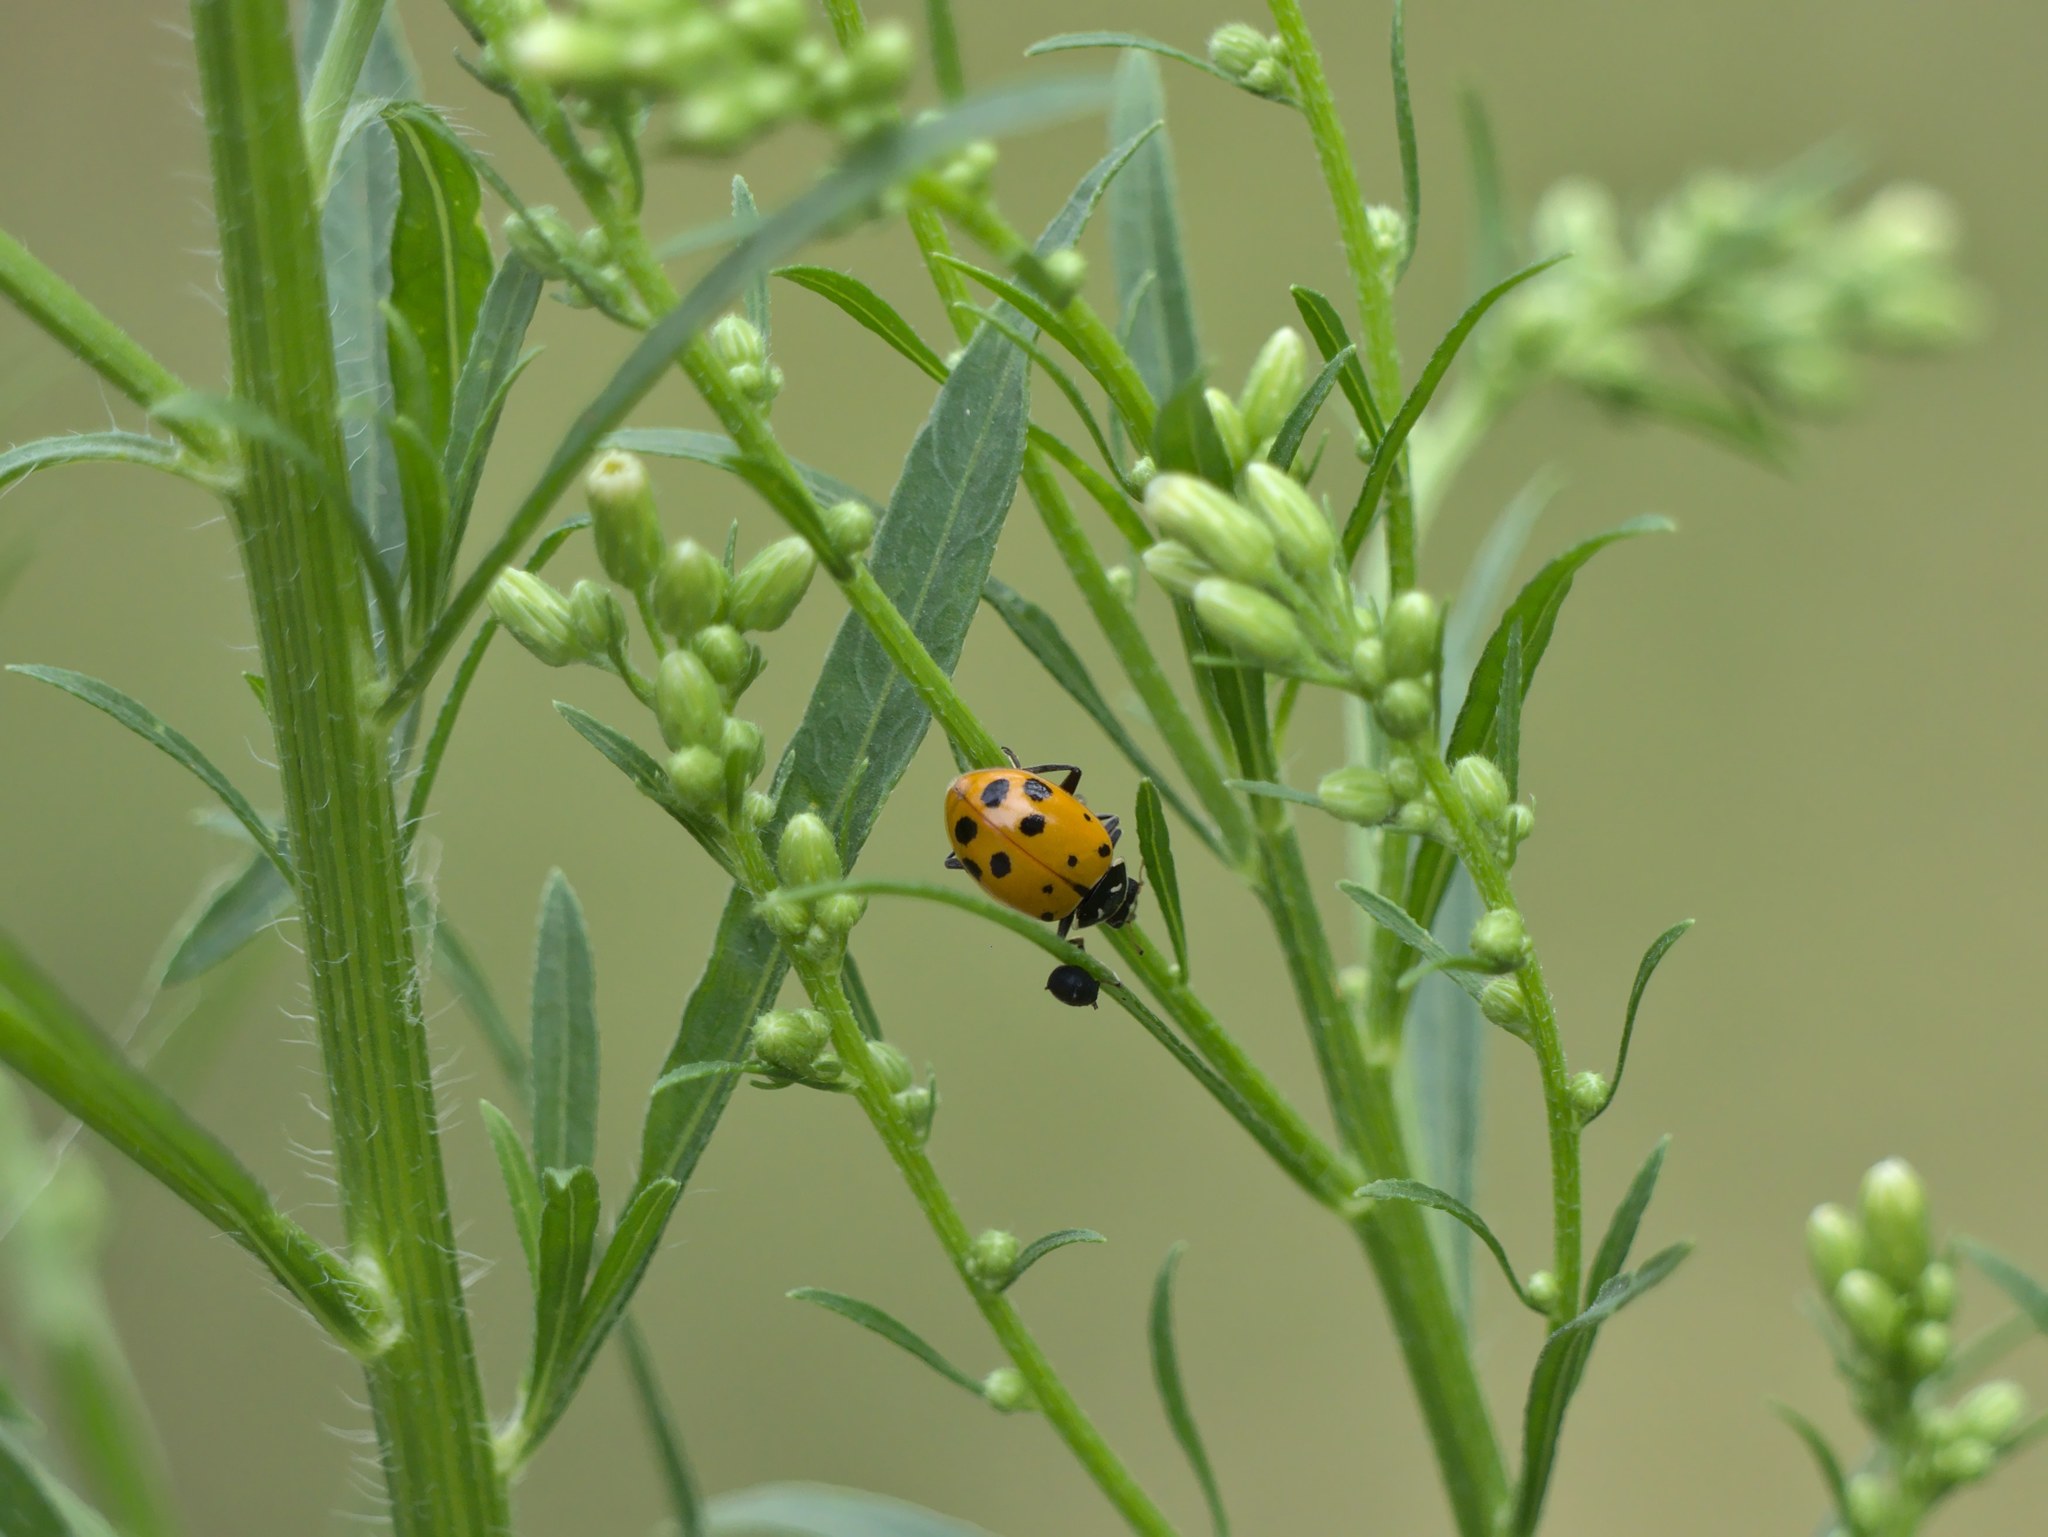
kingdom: Animalia
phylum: Arthropoda
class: Insecta
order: Coleoptera
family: Coccinellidae
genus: Hippodamia
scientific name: Hippodamia convergens
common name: Convergent lady beetle
